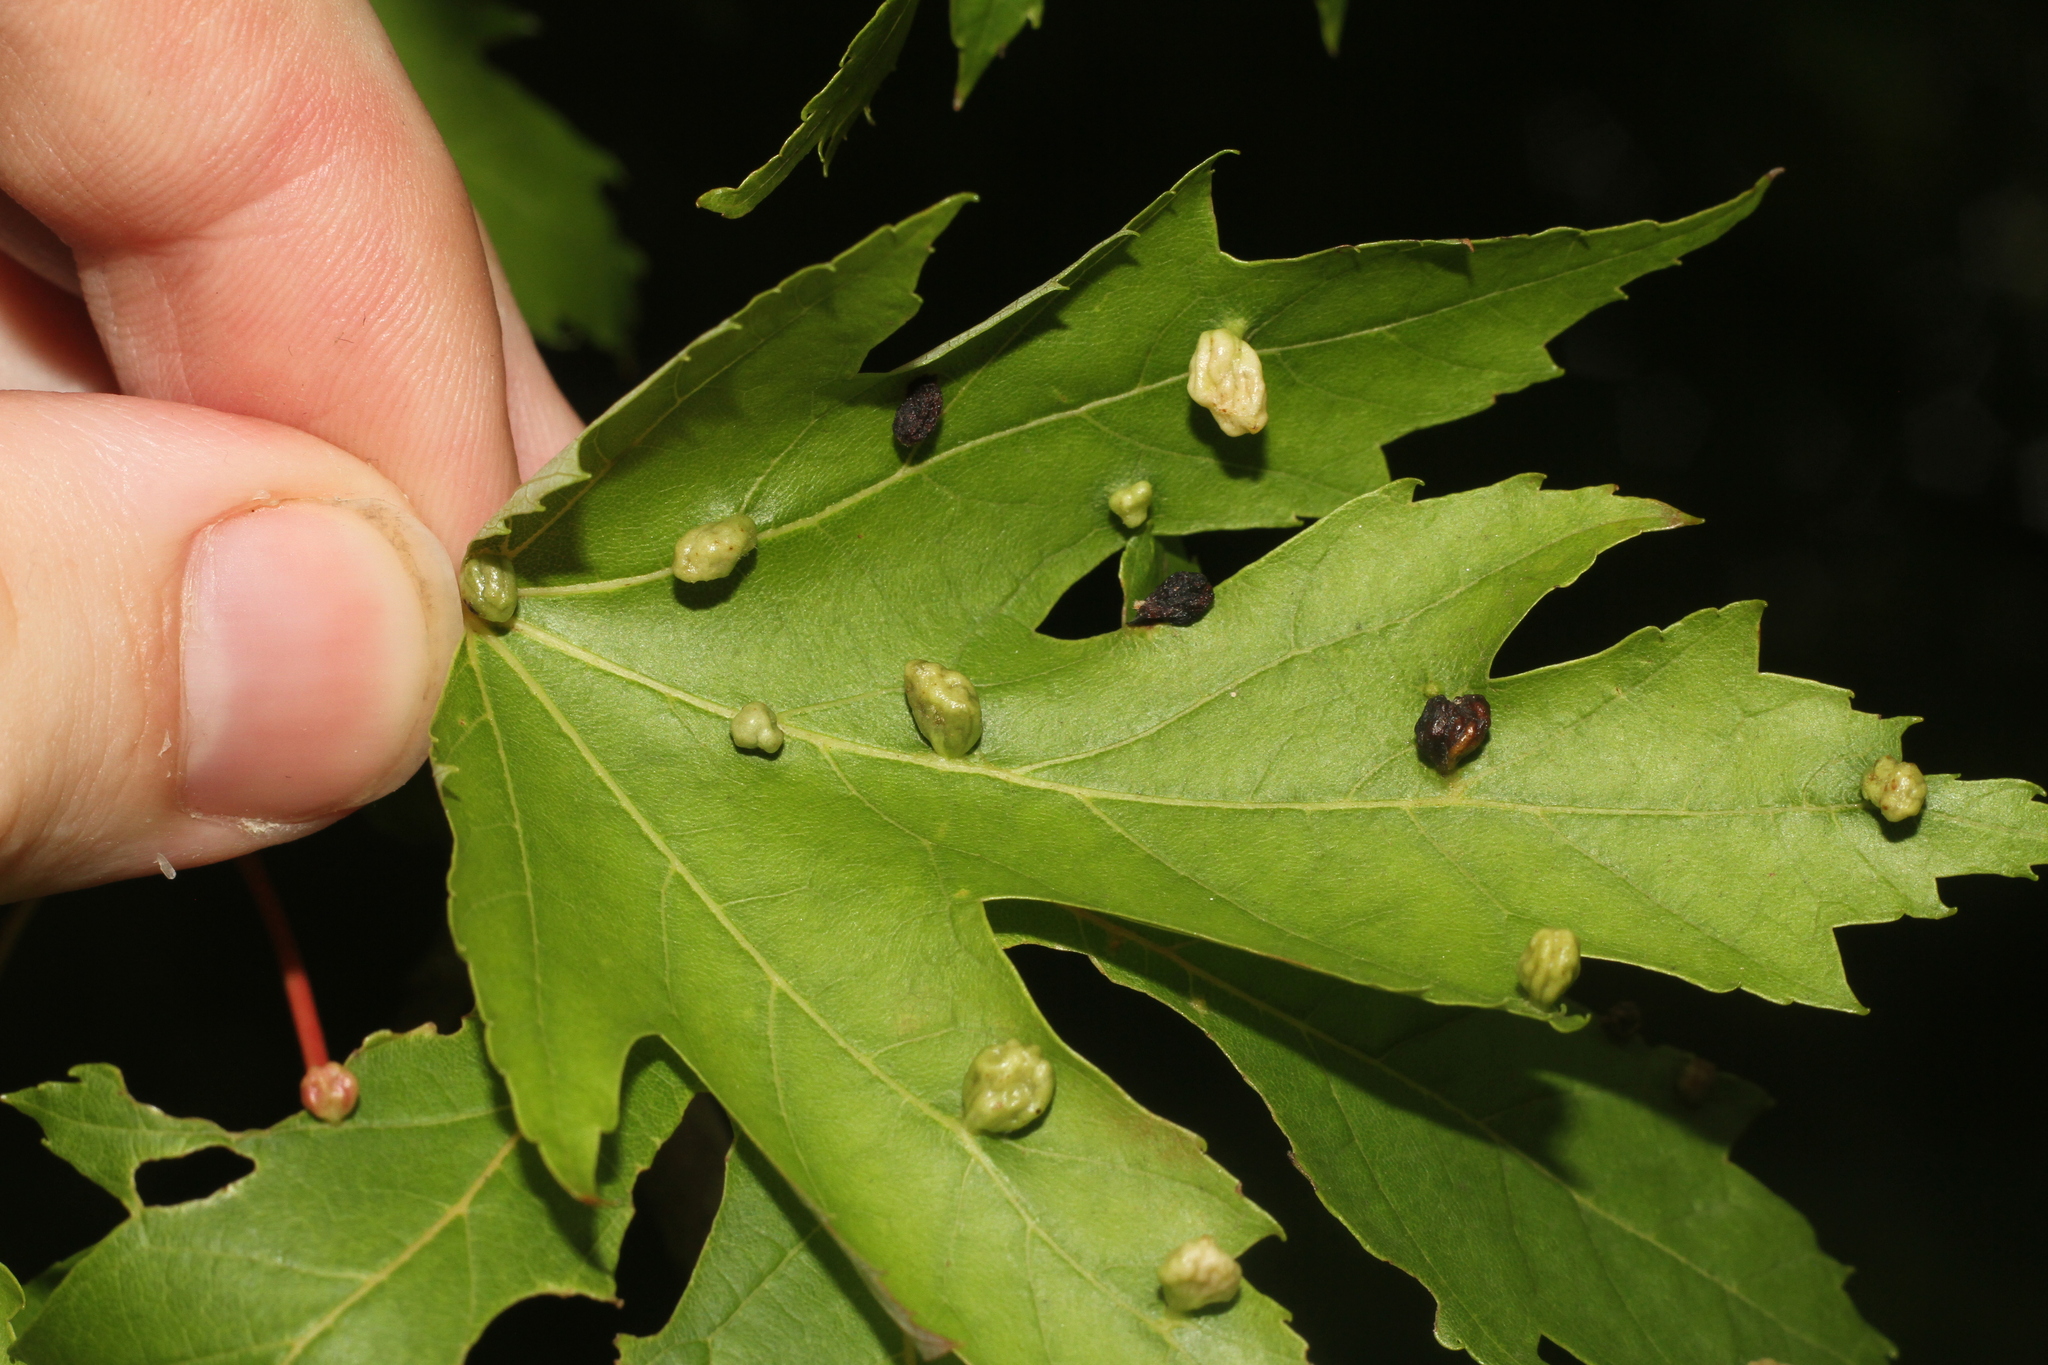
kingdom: Animalia
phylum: Arthropoda
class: Arachnida
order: Trombidiformes
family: Eriophyidae
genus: Vasates
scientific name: Vasates quadripedes
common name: Maple bladder gall mite
